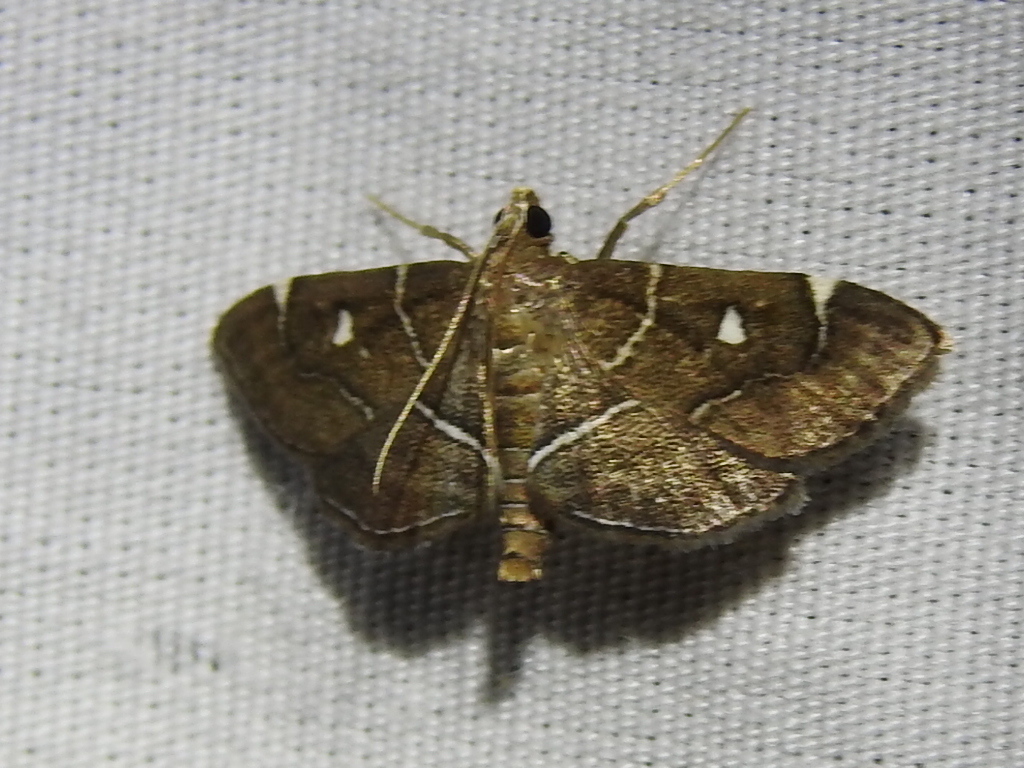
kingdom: Animalia
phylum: Arthropoda
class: Insecta
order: Lepidoptera
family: Crambidae
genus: Lamprosema
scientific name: Lamprosema victoriae
